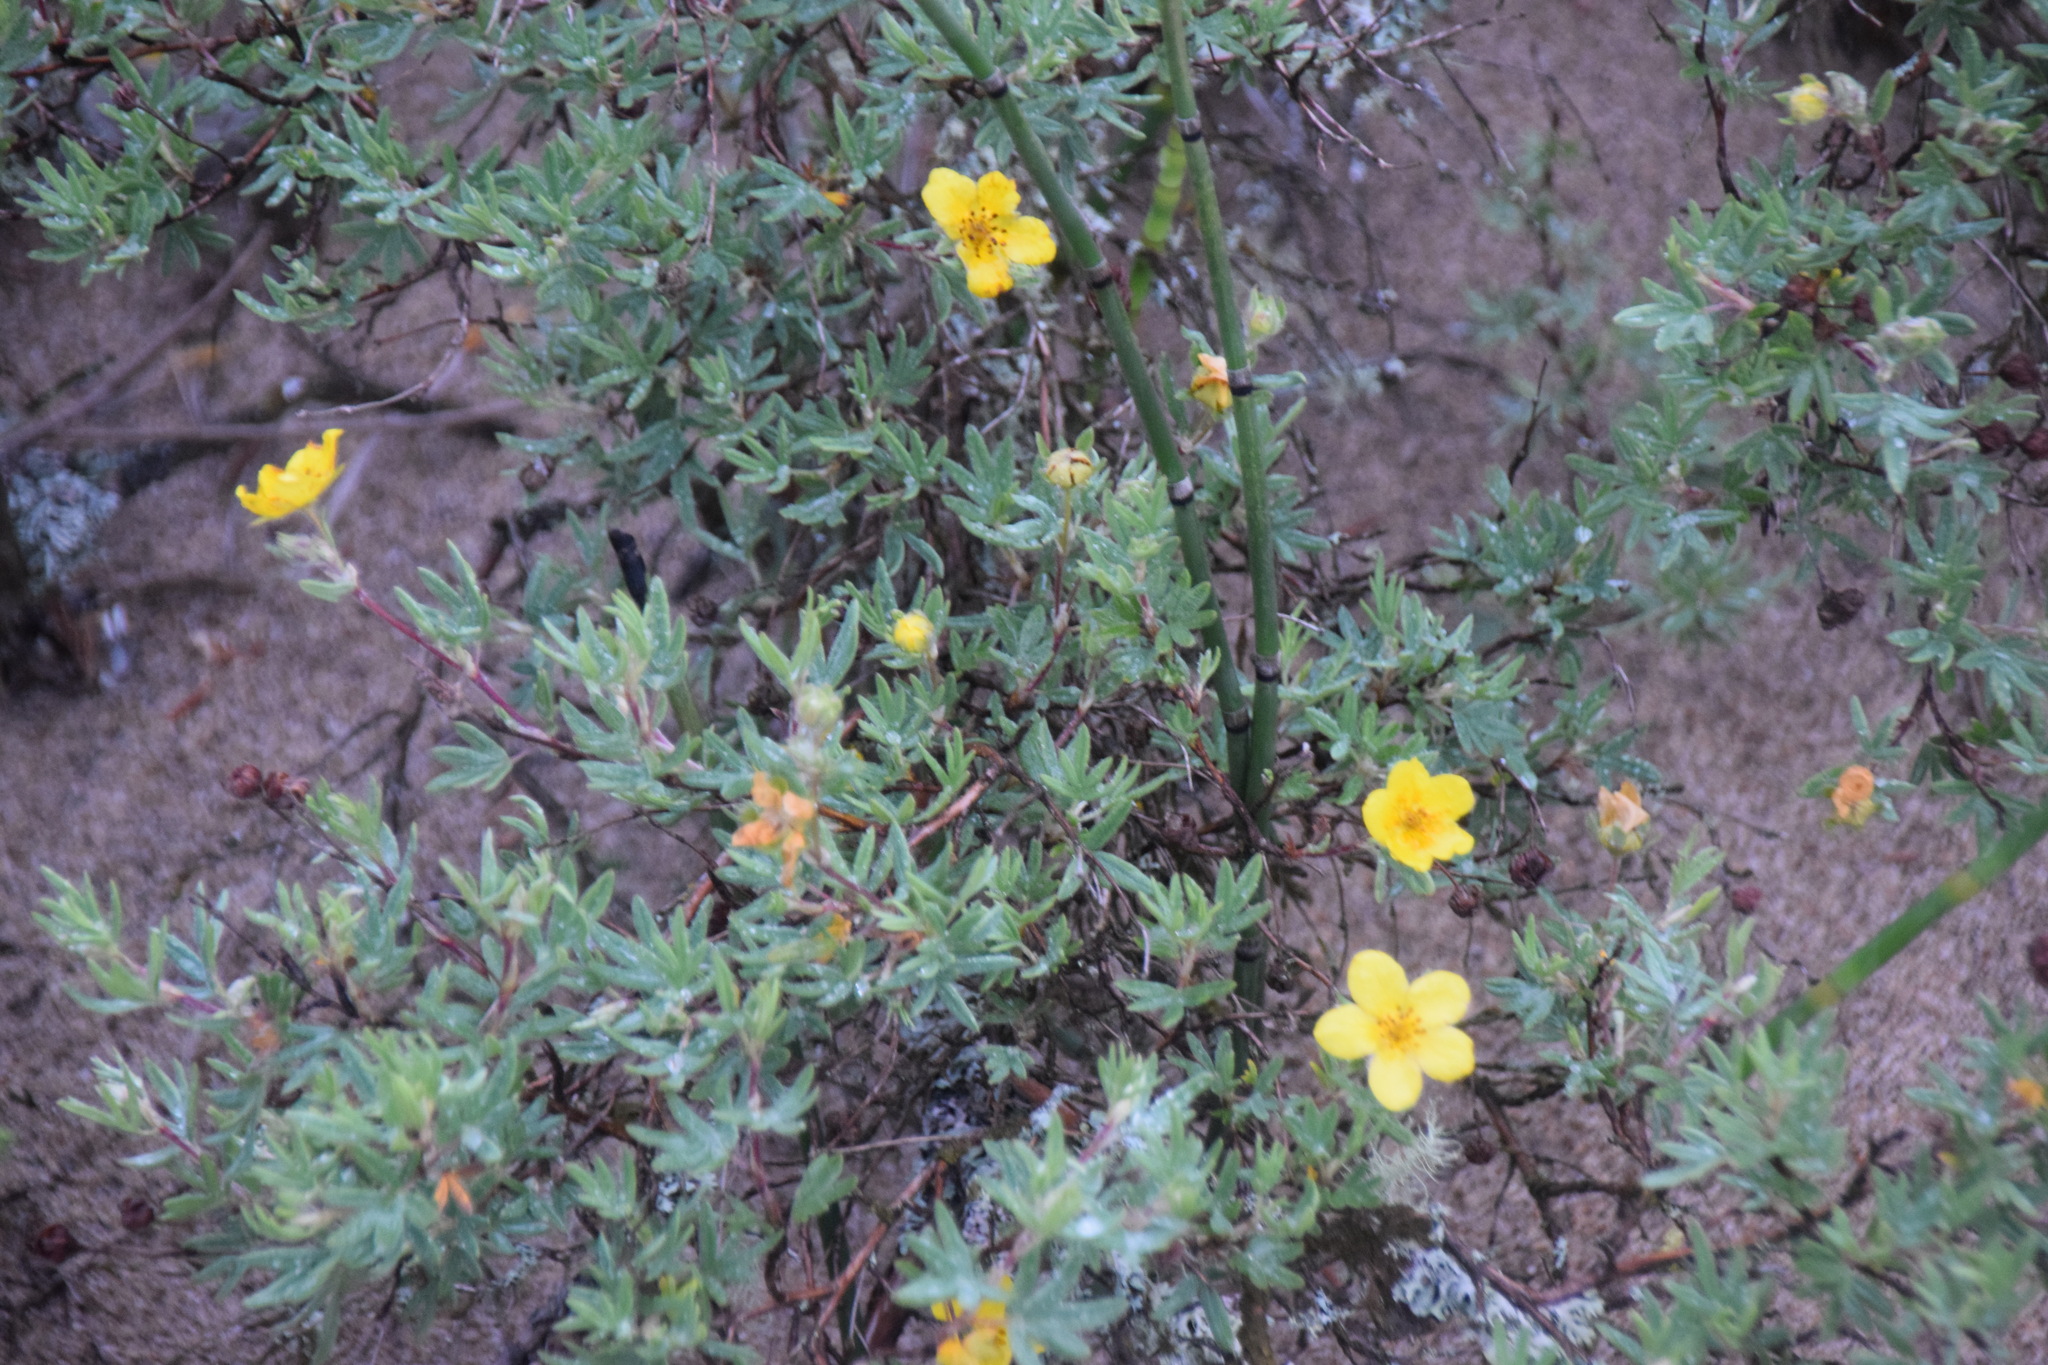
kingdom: Plantae
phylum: Tracheophyta
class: Magnoliopsida
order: Rosales
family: Rosaceae
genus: Dasiphora
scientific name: Dasiphora fruticosa
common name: Shrubby cinquefoil
